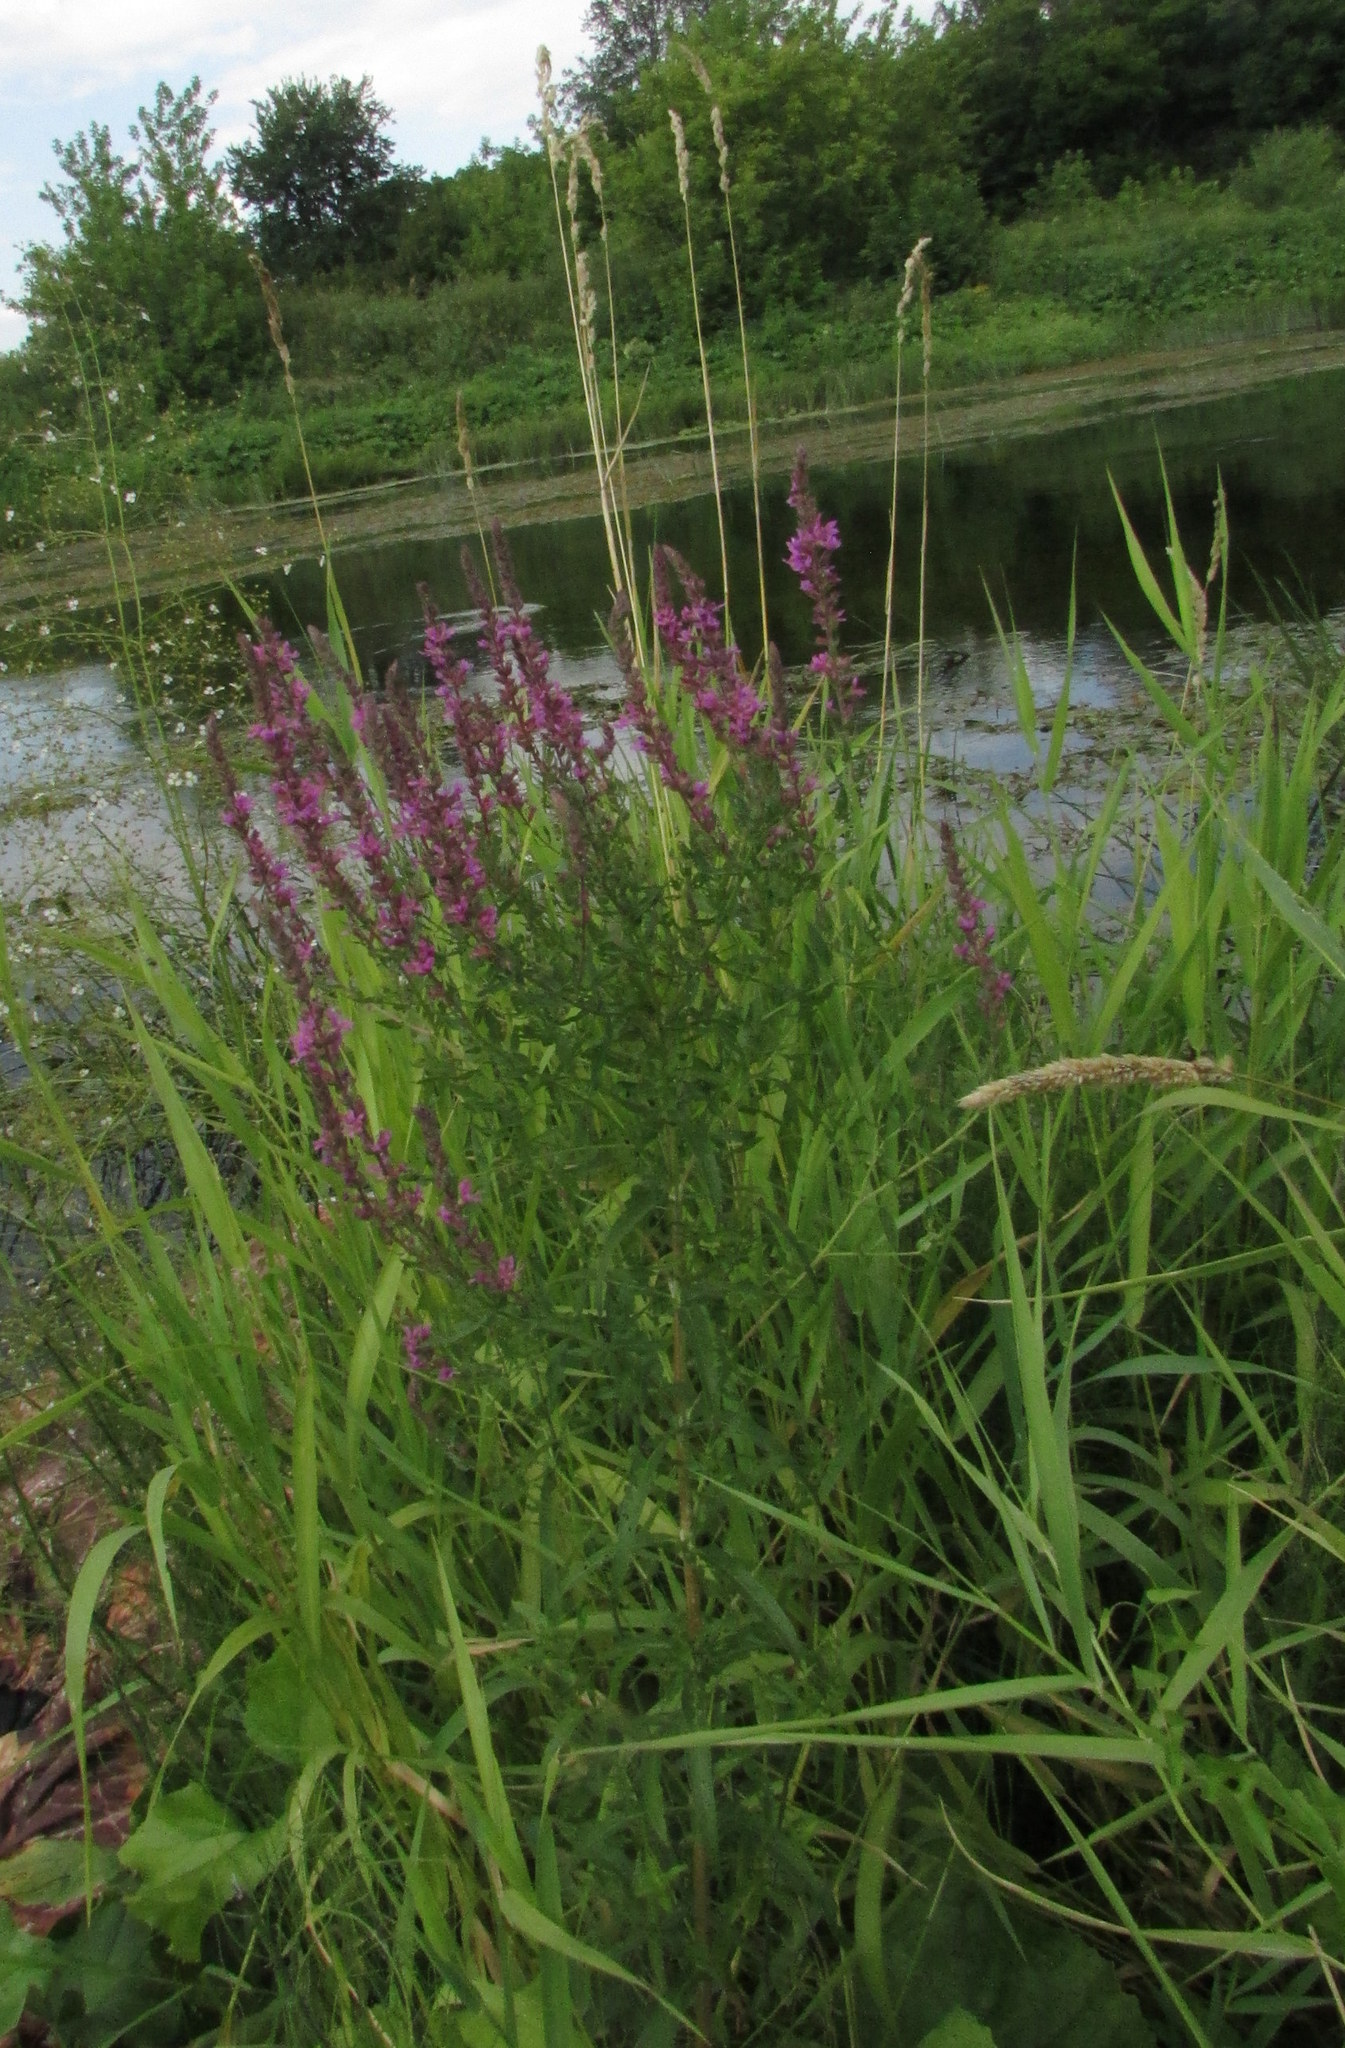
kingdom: Plantae
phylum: Tracheophyta
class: Magnoliopsida
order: Myrtales
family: Lythraceae
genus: Lythrum
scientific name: Lythrum salicaria
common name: Purple loosestrife
